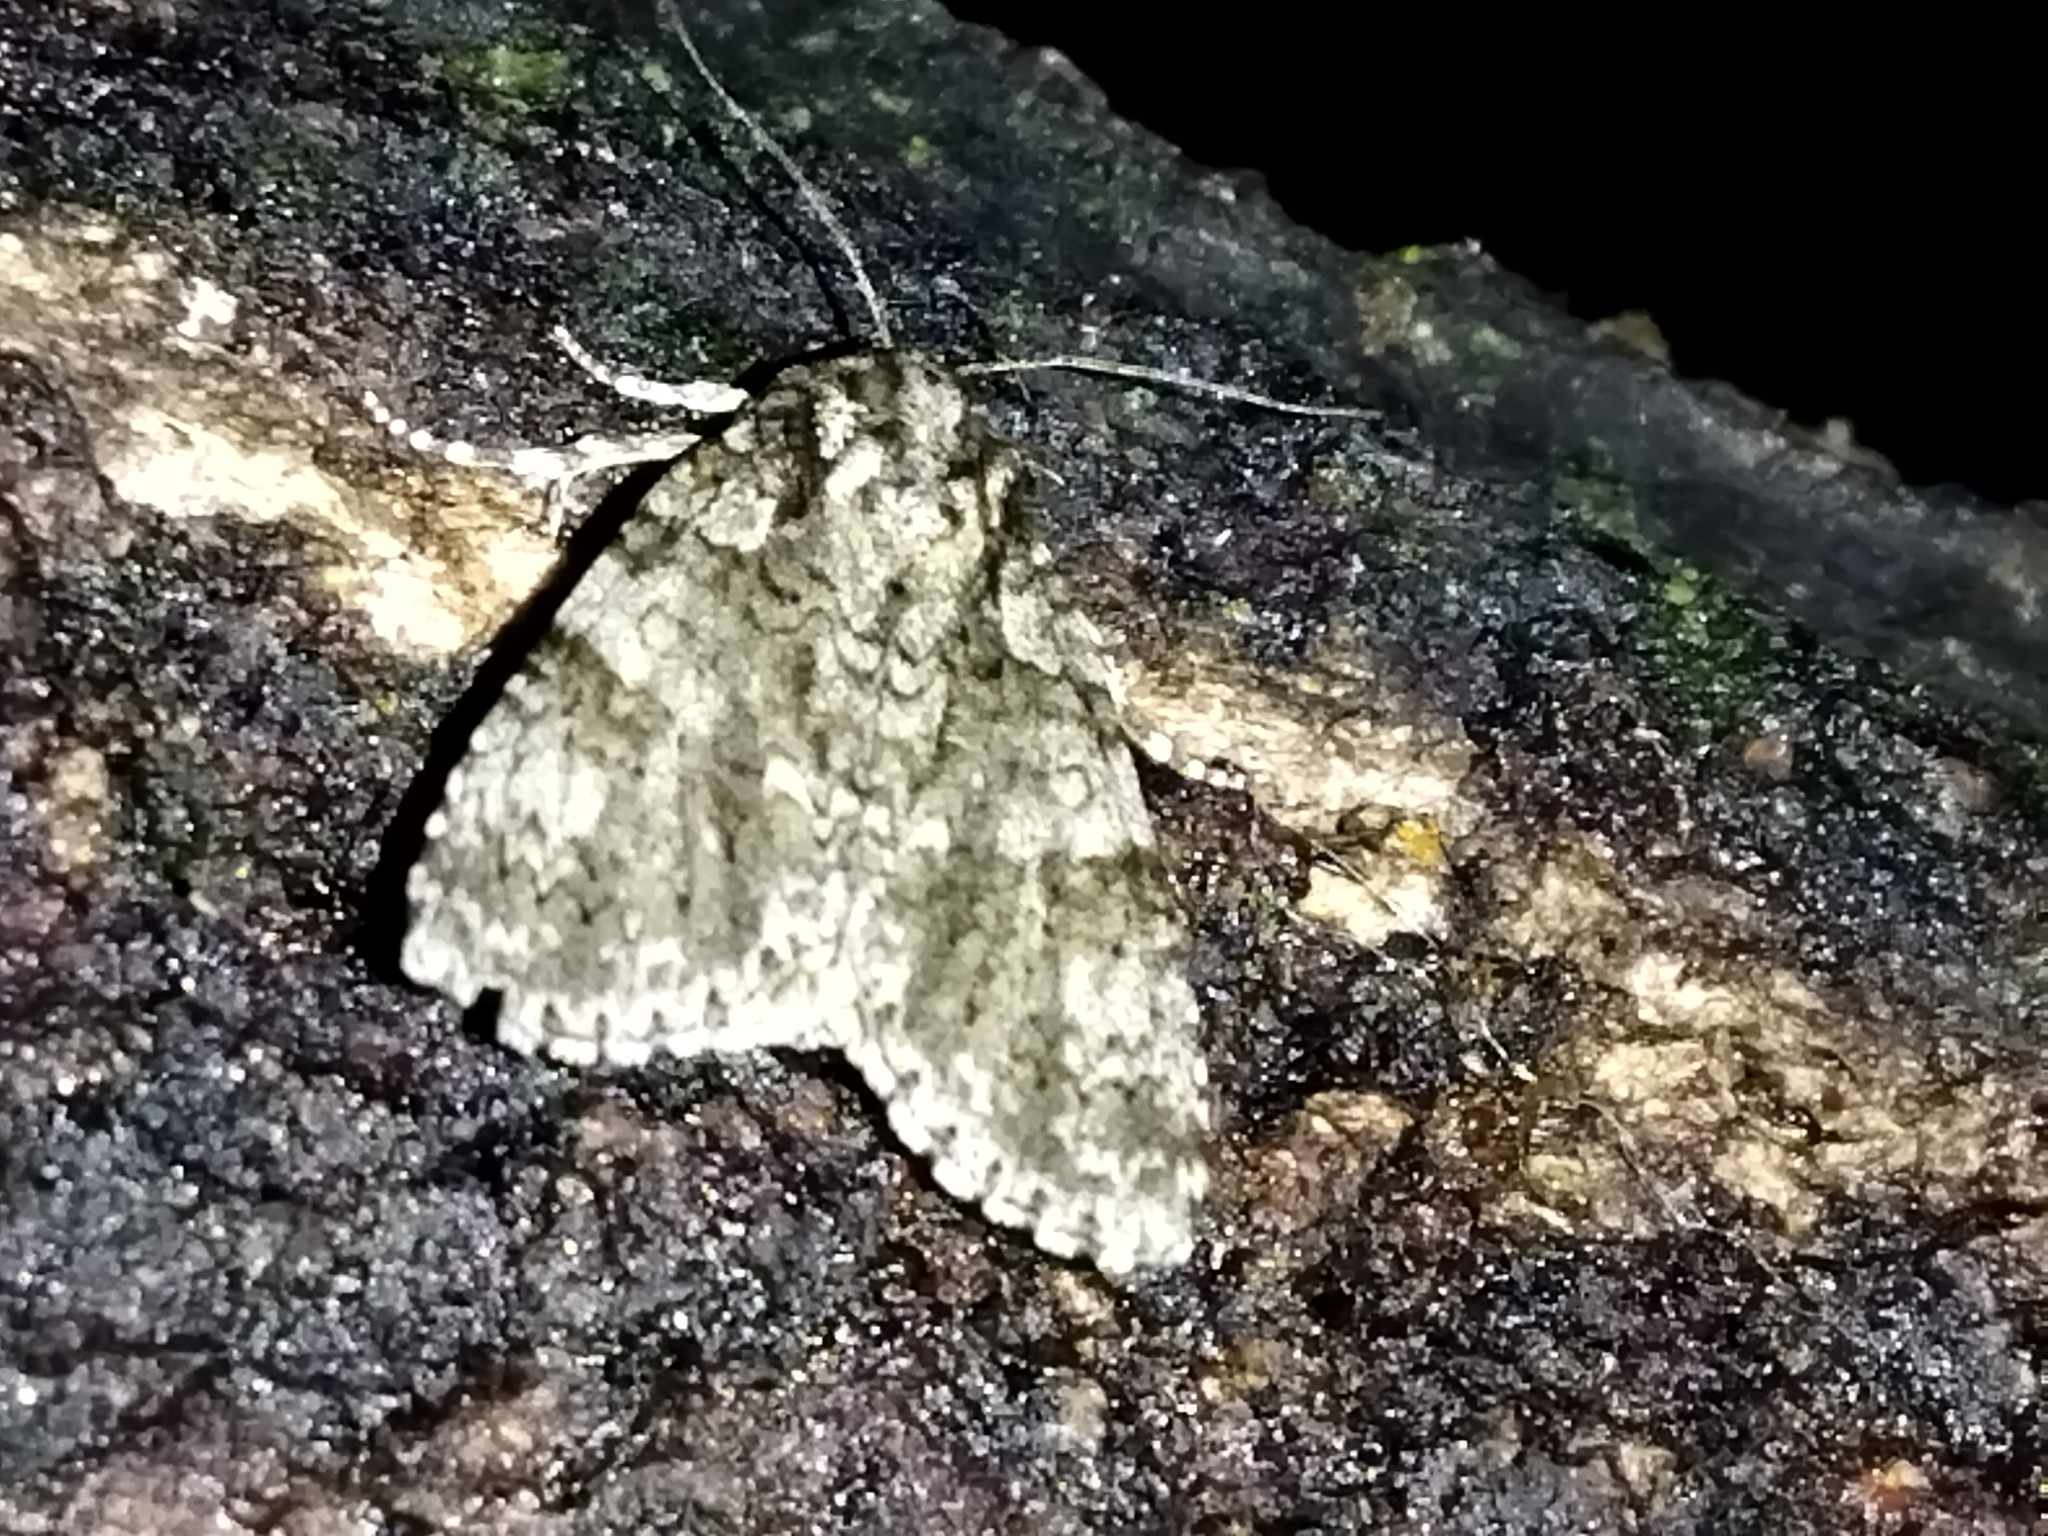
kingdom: Animalia
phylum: Arthropoda
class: Insecta
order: Lepidoptera
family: Noctuidae
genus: Acronicta
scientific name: Acronicta rumicis
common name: Knot grass
